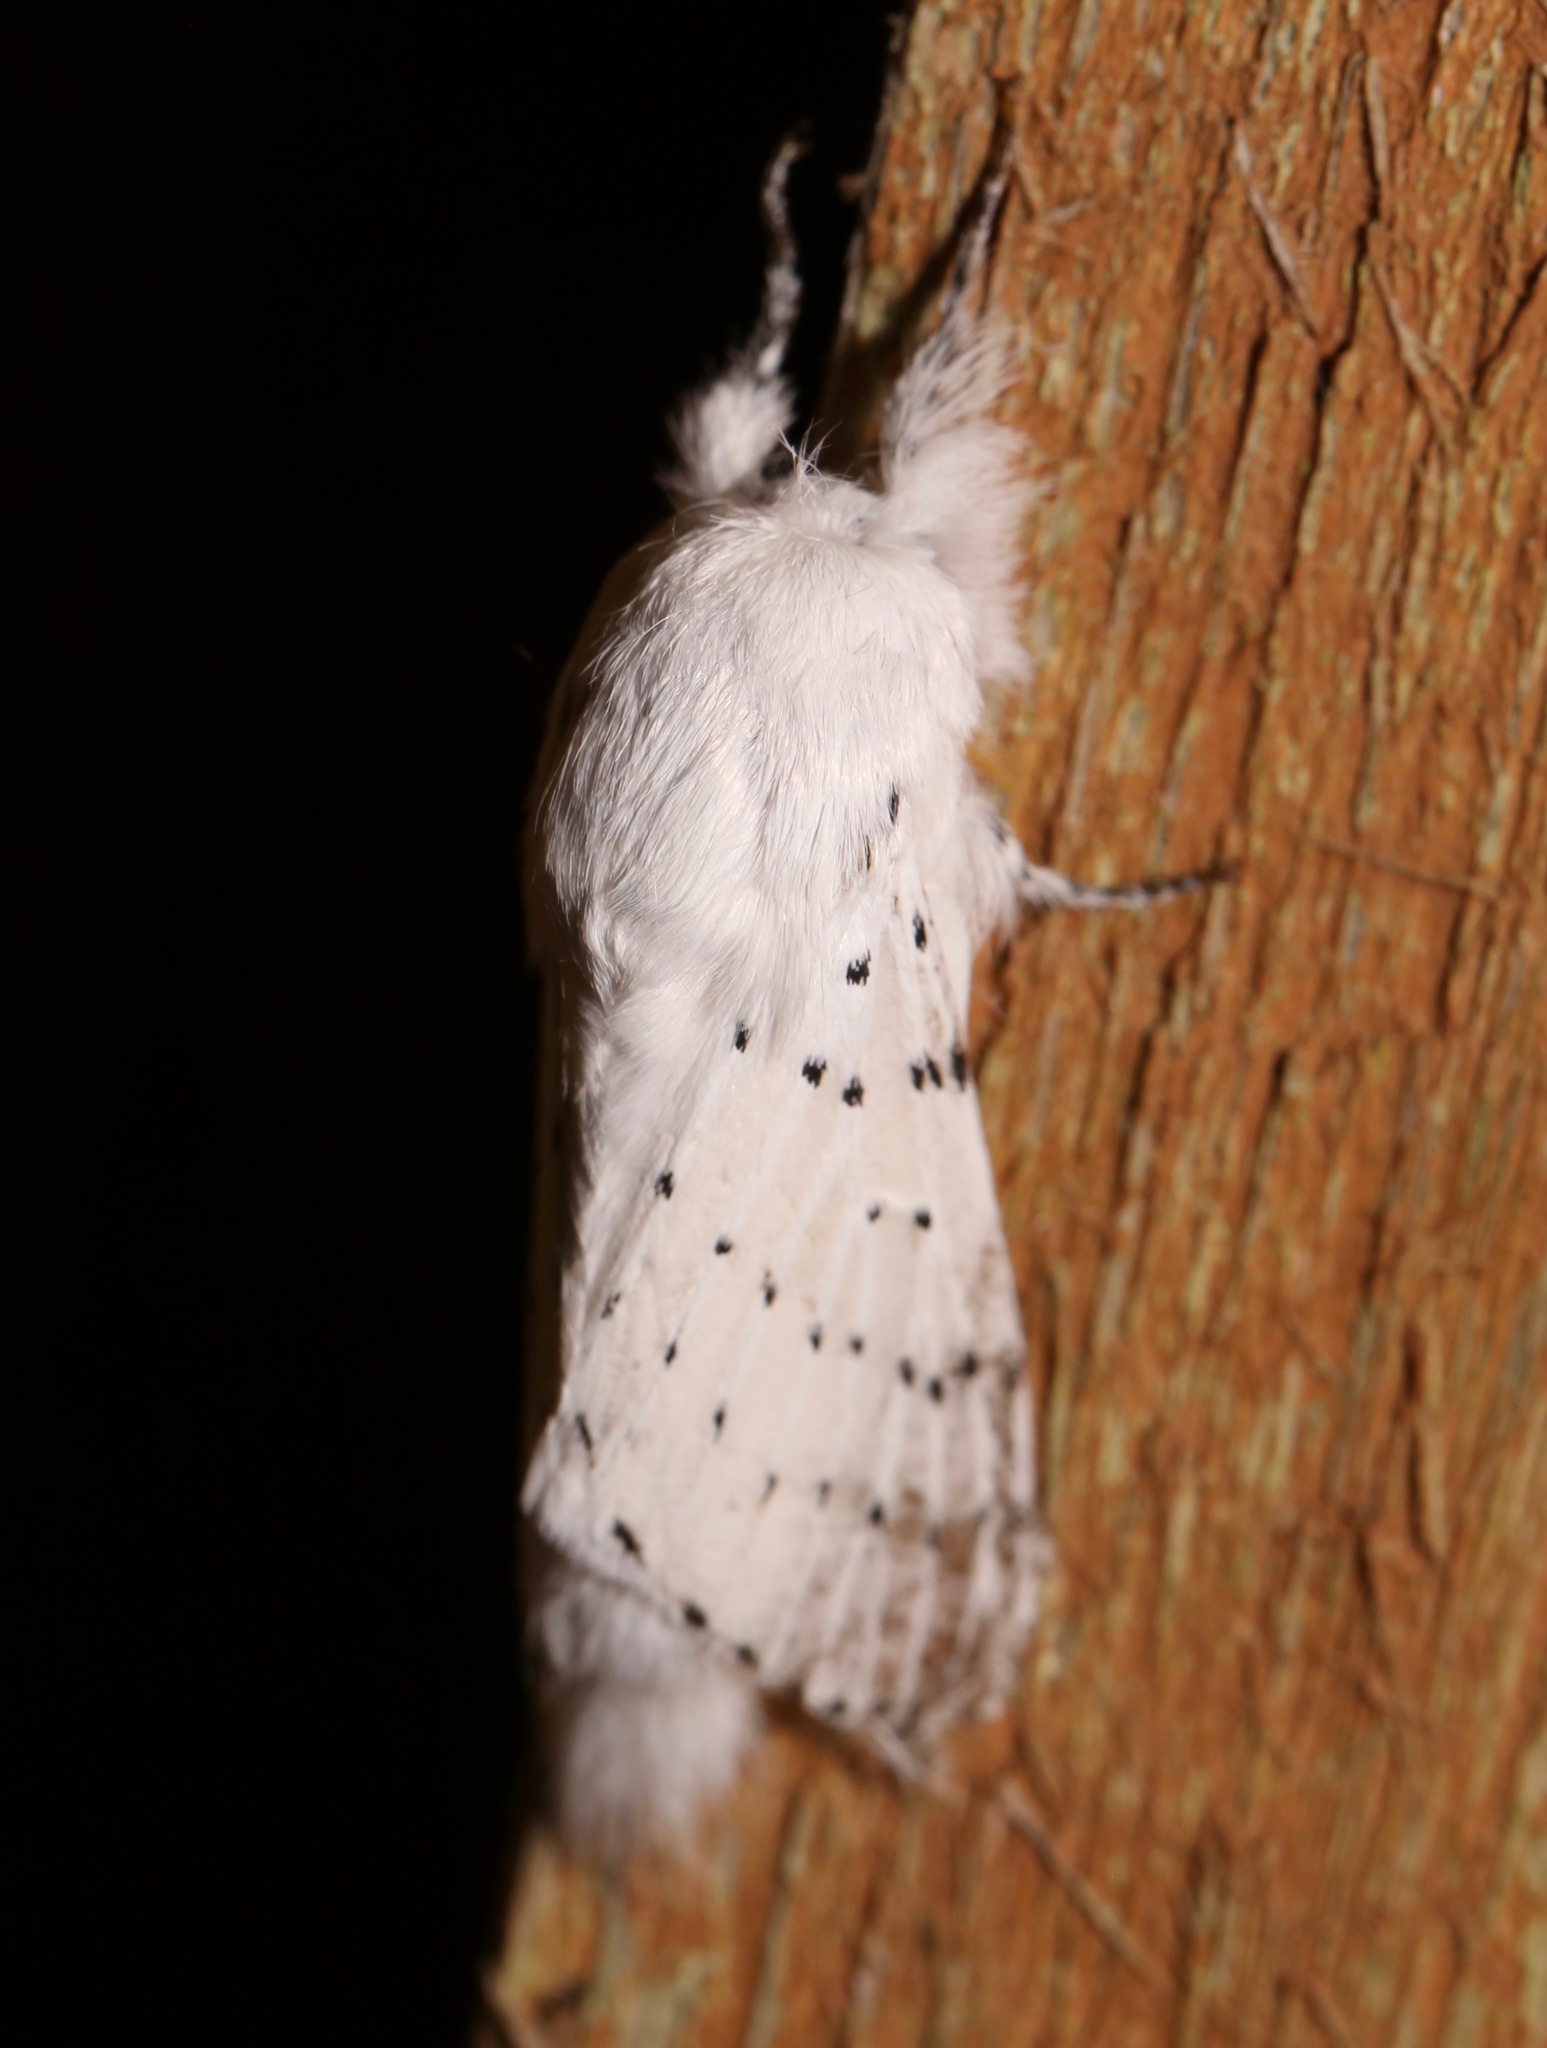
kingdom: Animalia
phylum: Arthropoda
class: Insecta
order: Lepidoptera
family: Lasiocampidae
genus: Artace
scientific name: Artace cribrarius
